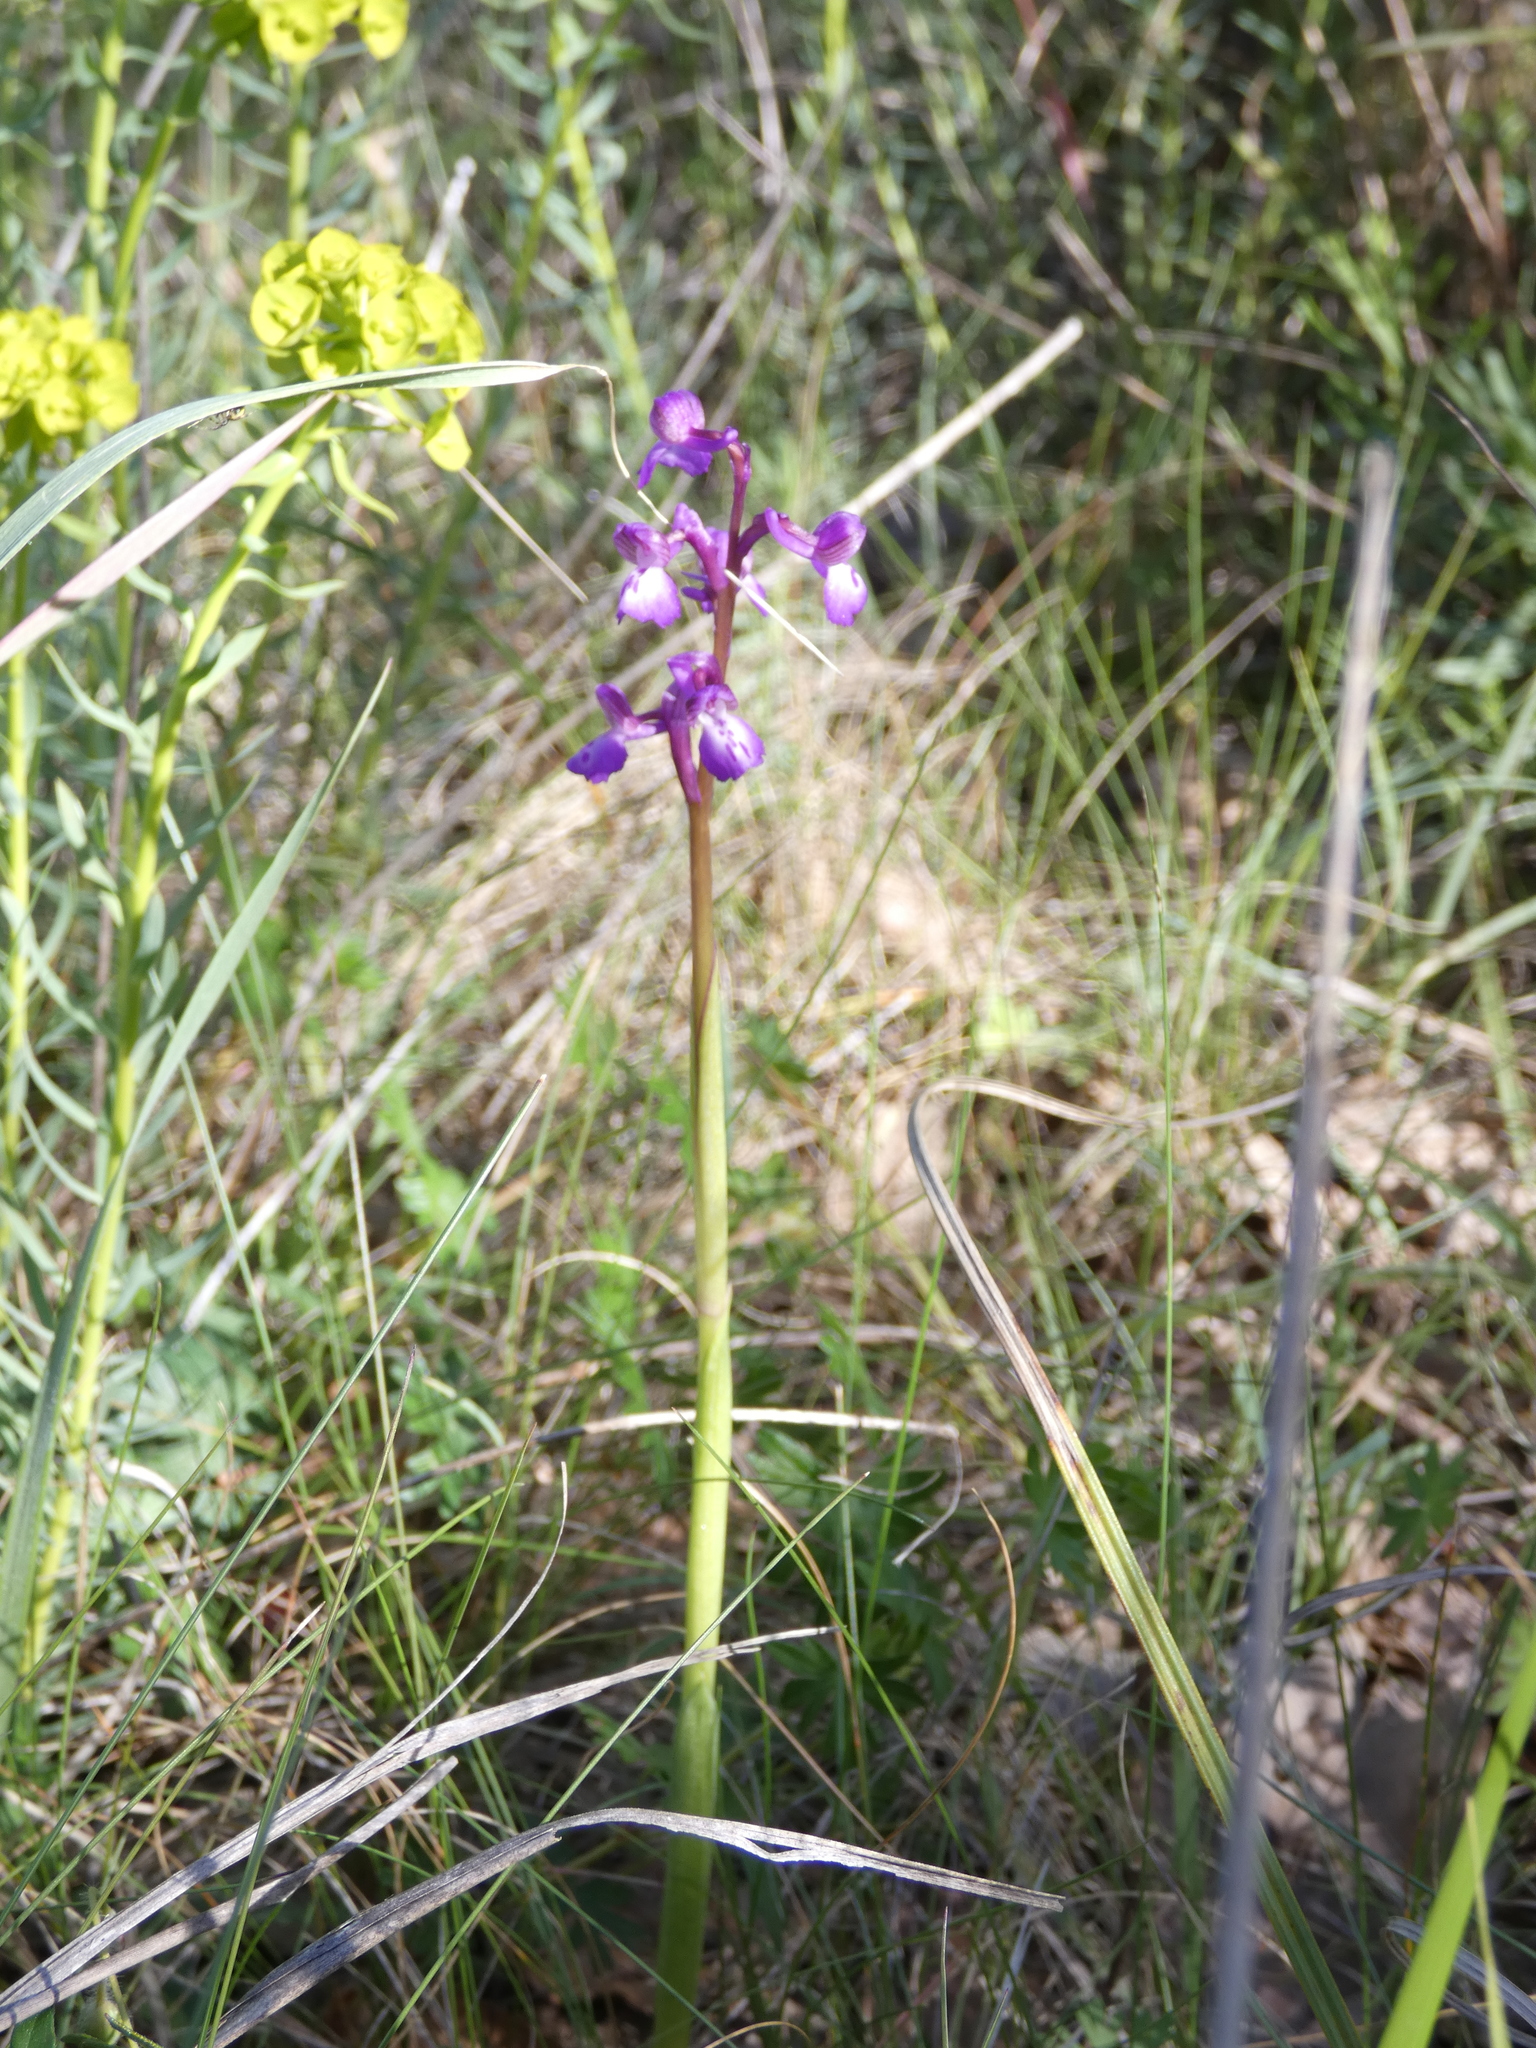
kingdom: Plantae
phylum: Tracheophyta
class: Liliopsida
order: Asparagales
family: Orchidaceae
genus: Anacamptis
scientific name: Anacamptis morio
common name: Green-winged orchid
